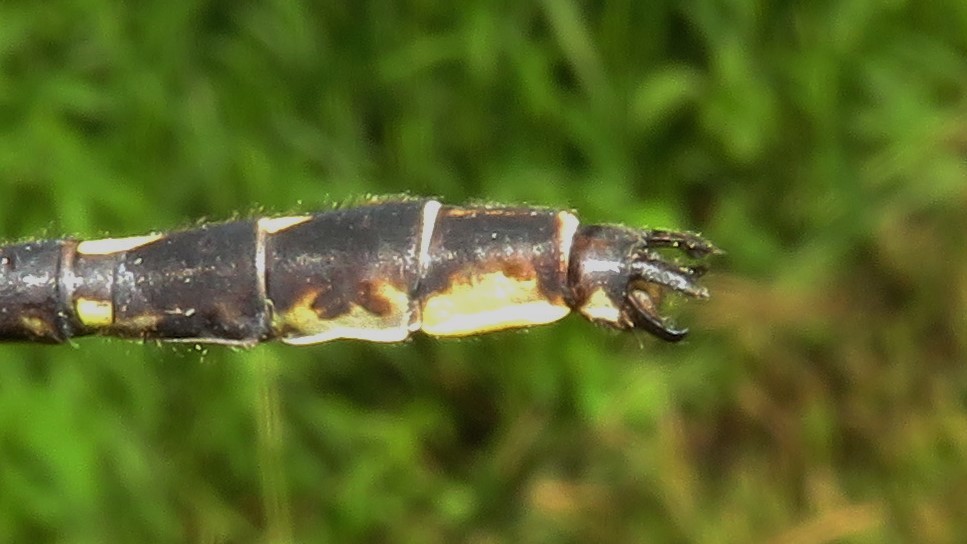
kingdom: Animalia
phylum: Arthropoda
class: Insecta
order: Odonata
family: Gomphidae
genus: Phanogomphus
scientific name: Phanogomphus lividus
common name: Ashy clubtail
